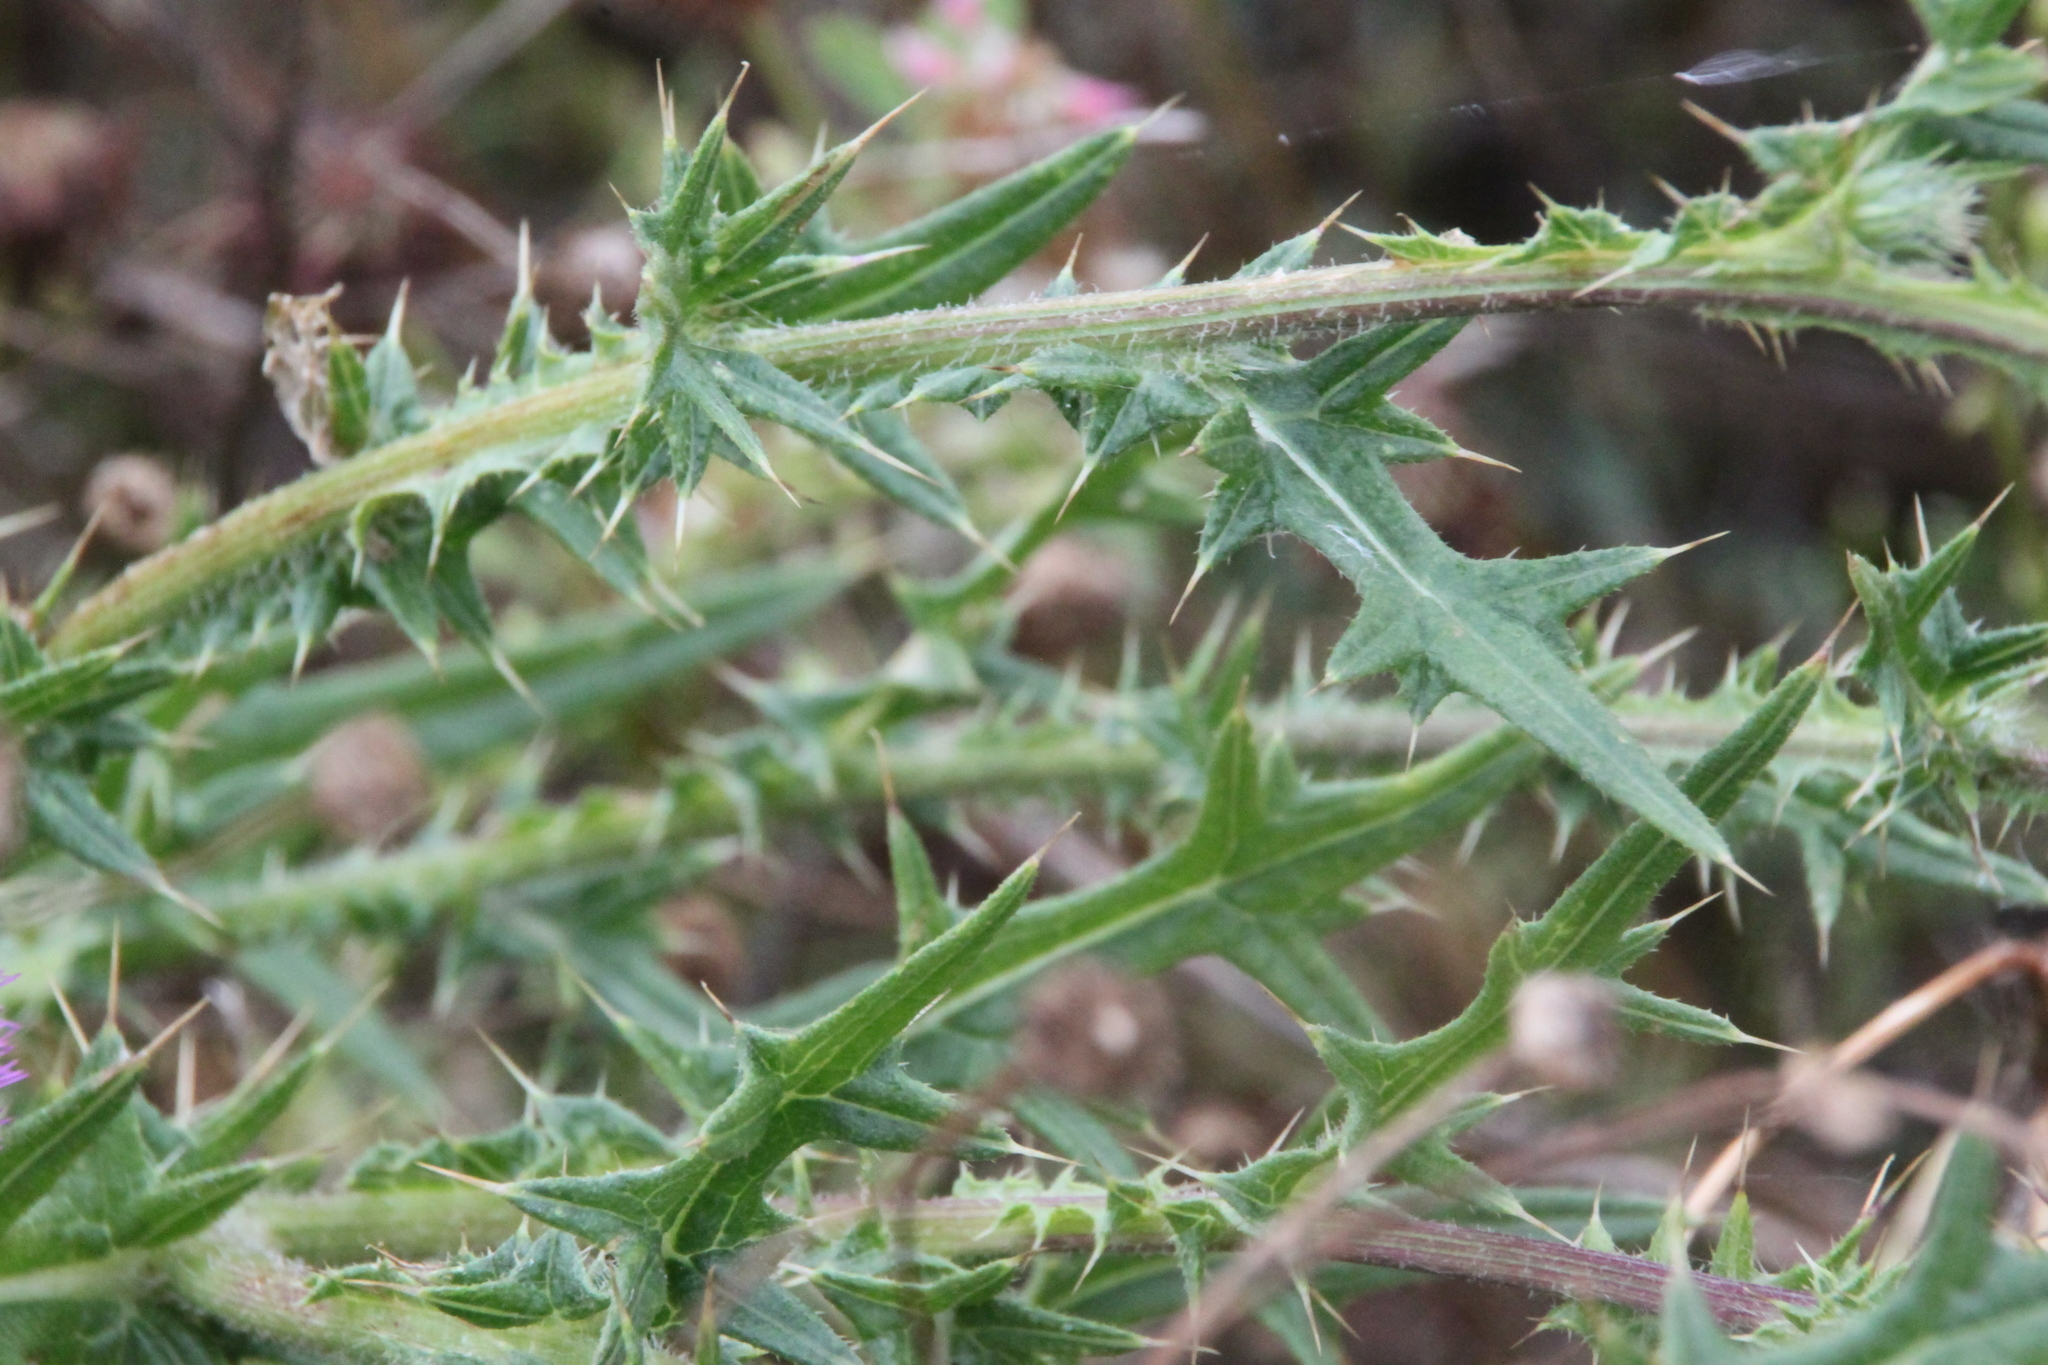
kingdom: Plantae
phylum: Tracheophyta
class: Magnoliopsida
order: Asterales
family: Asteraceae
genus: Cirsium
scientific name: Cirsium vulgare
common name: Bull thistle
